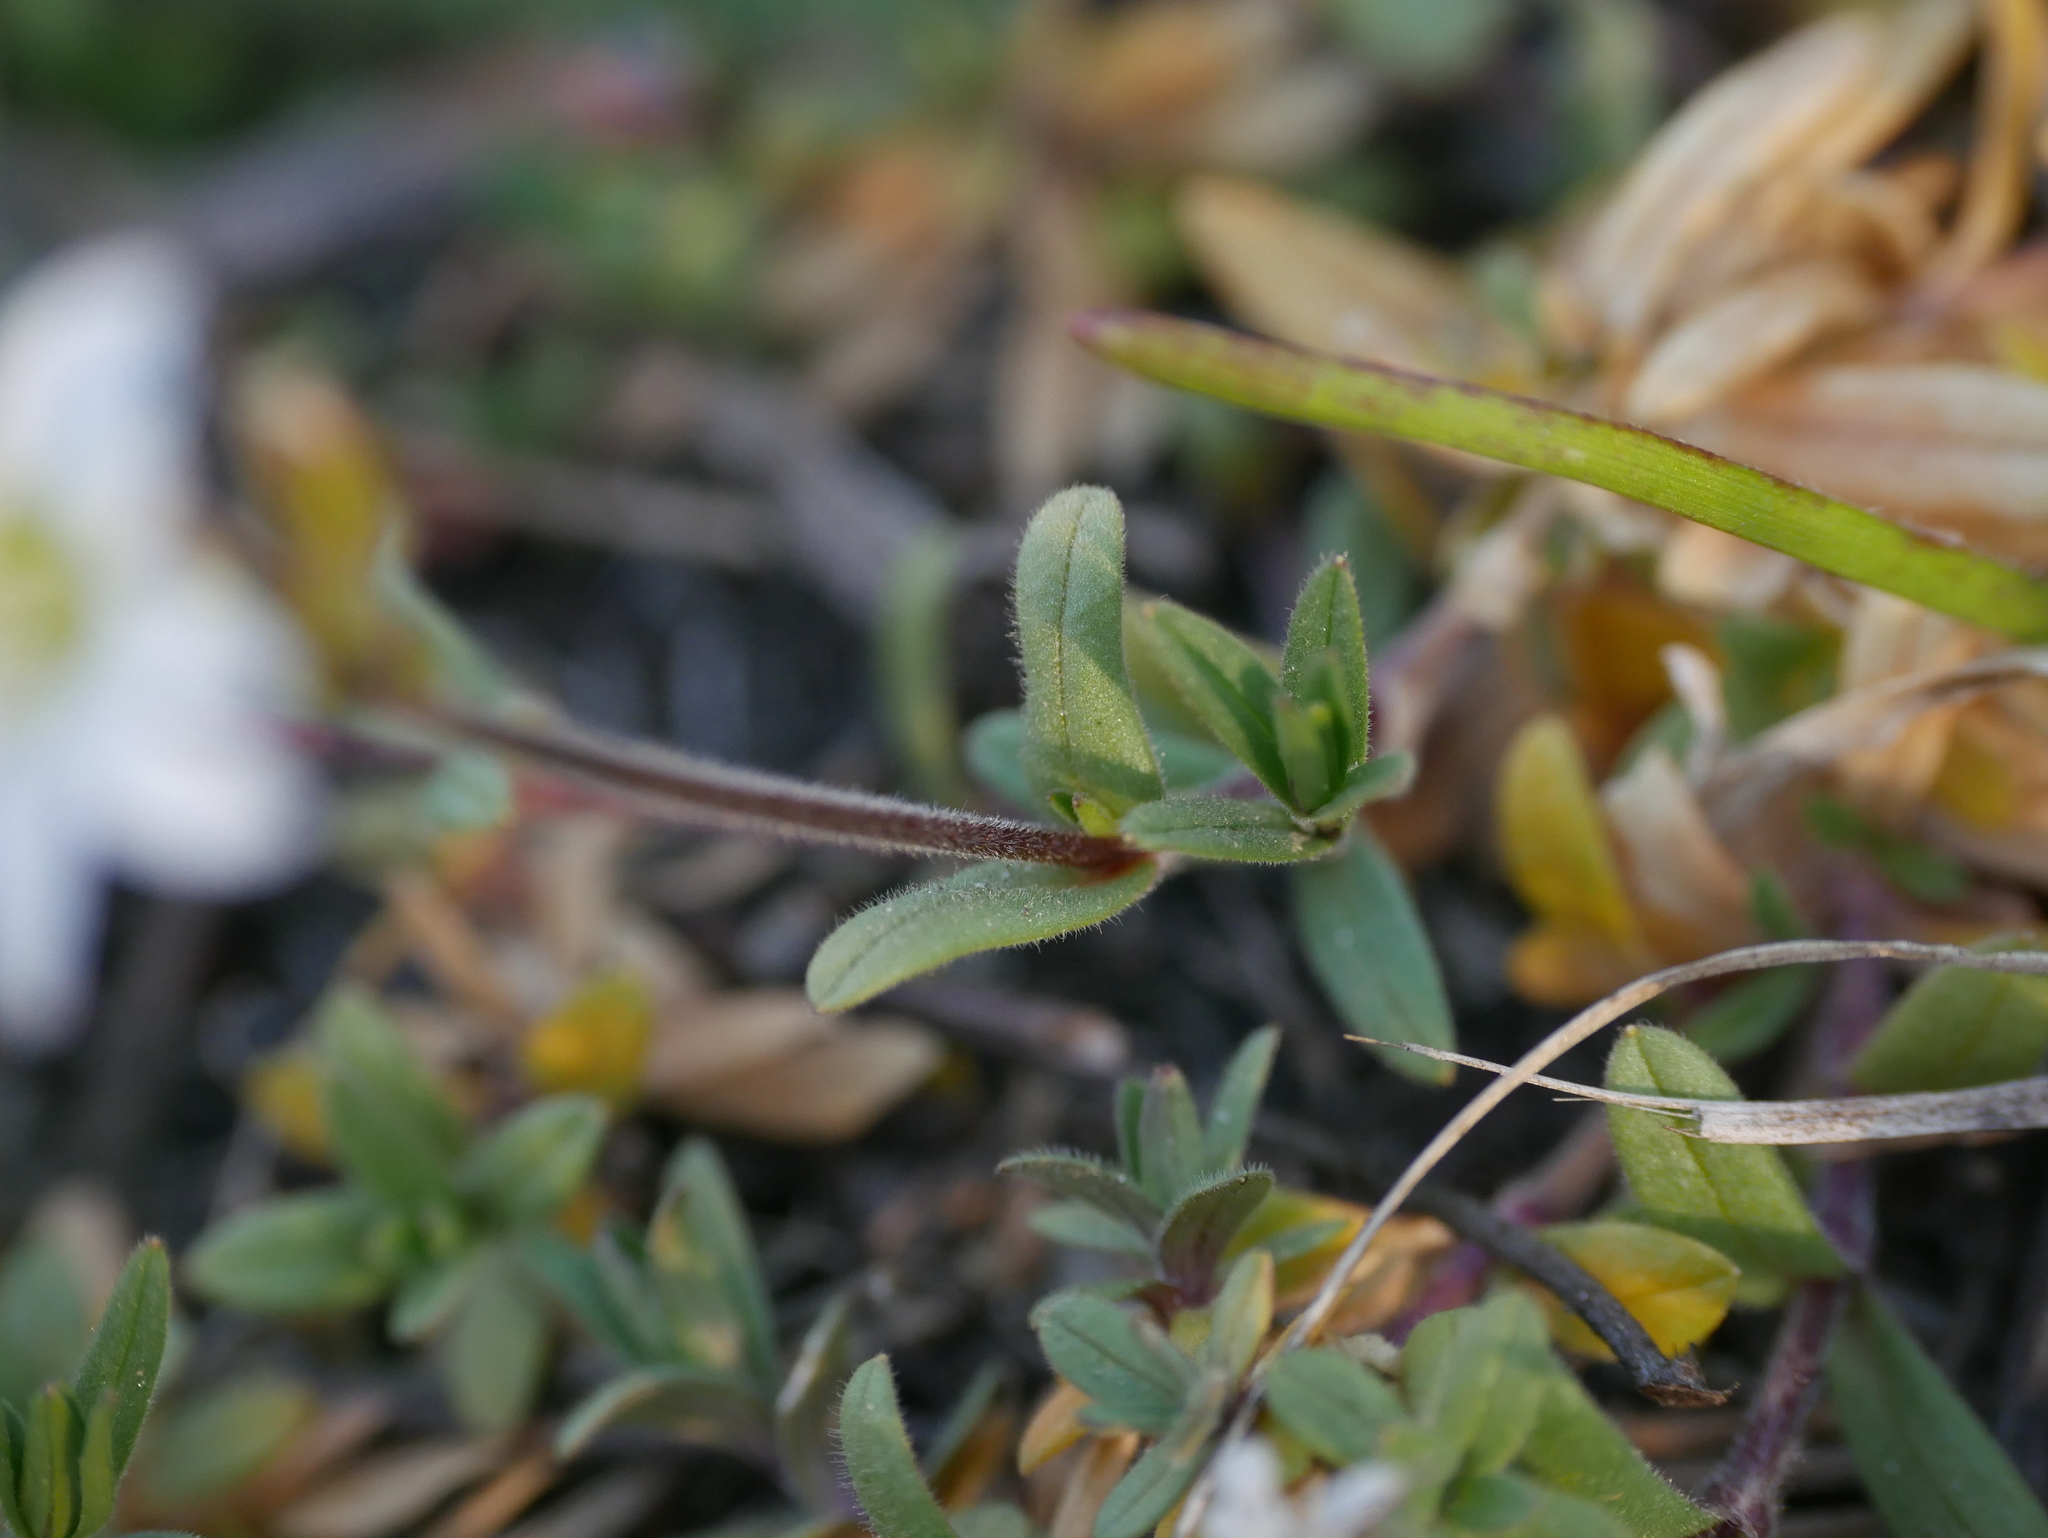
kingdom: Plantae
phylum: Tracheophyta
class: Magnoliopsida
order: Caryophyllales
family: Caryophyllaceae
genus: Cerastium
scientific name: Cerastium arvense
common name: Field mouse-ear
